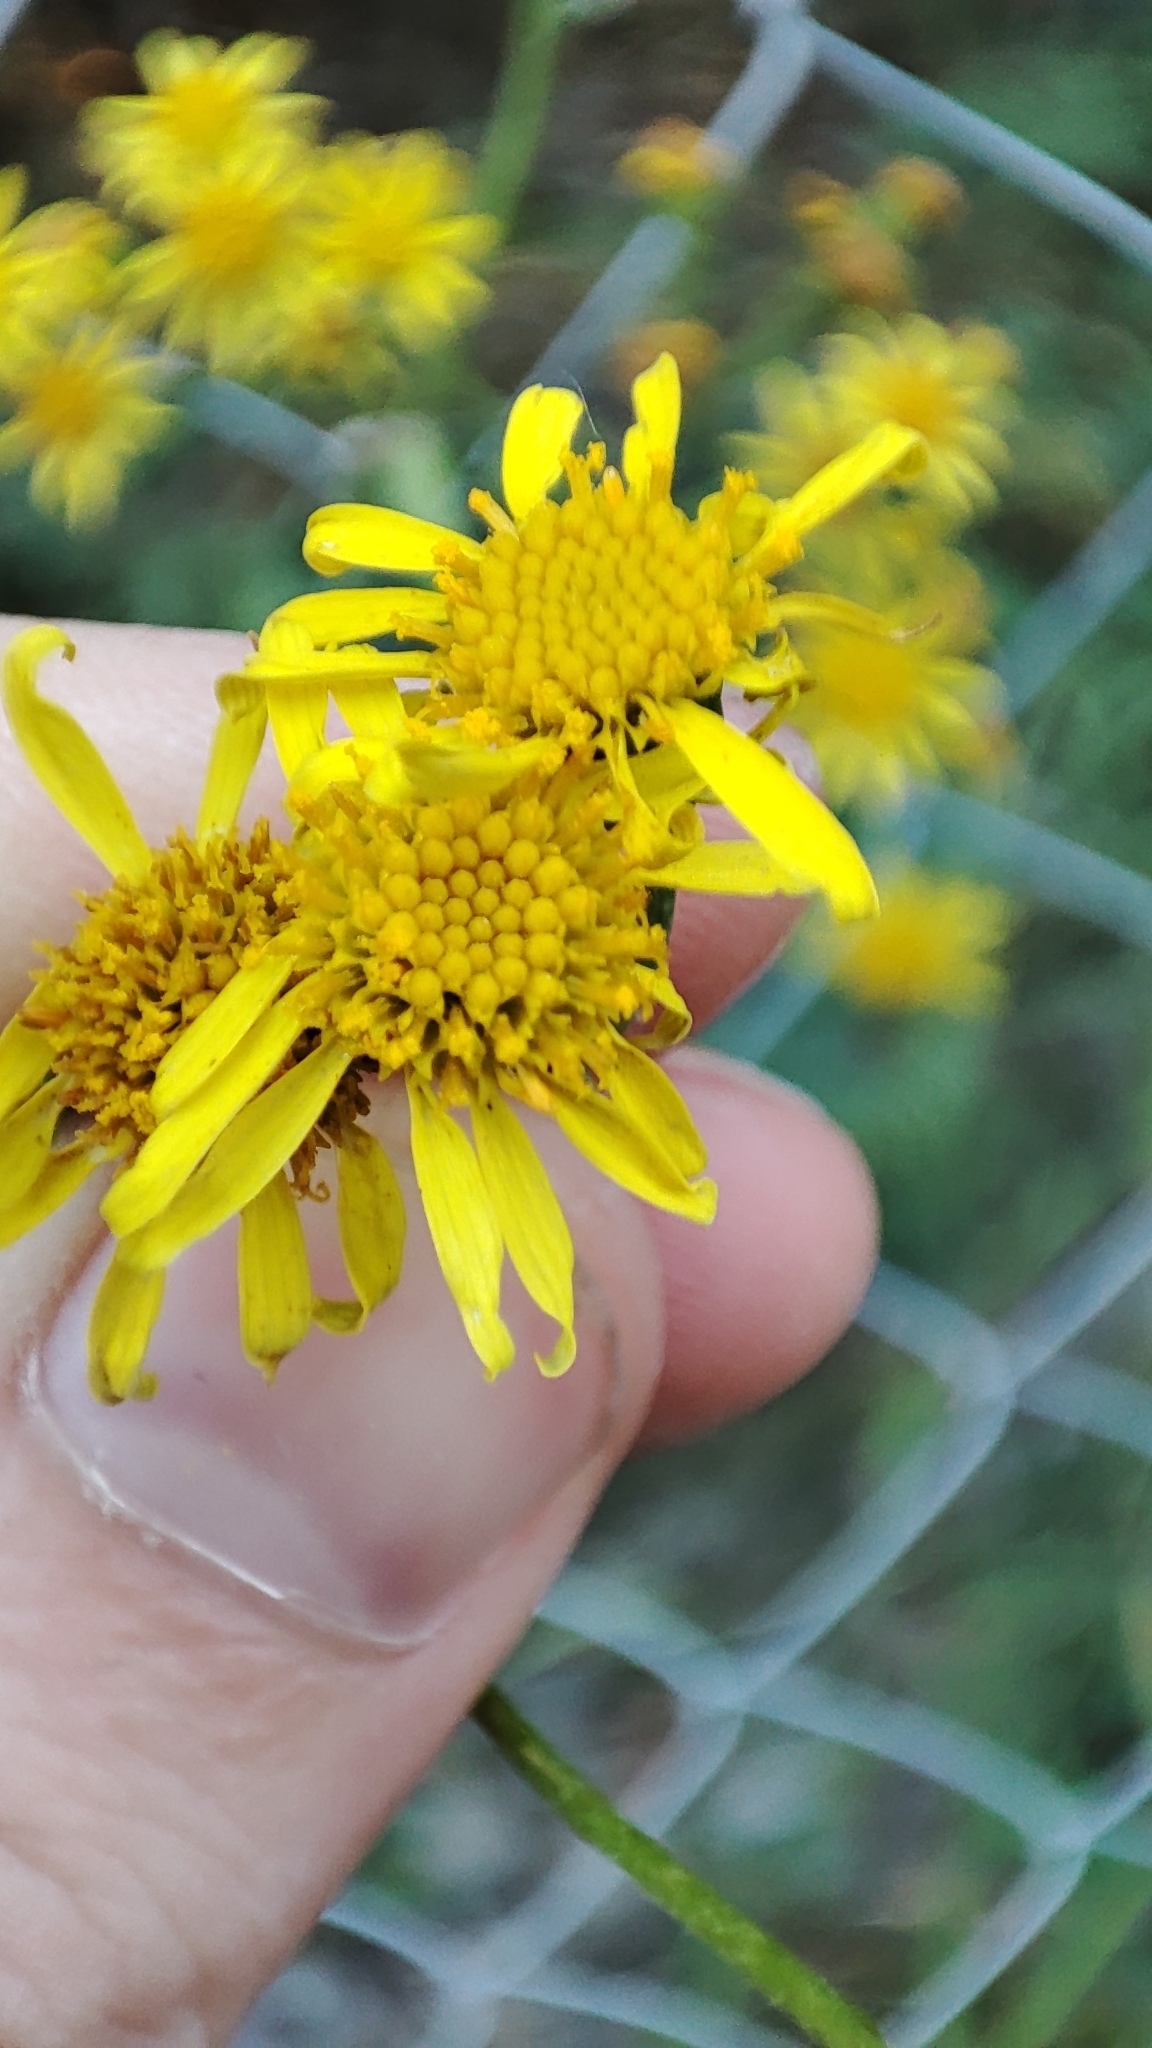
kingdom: Plantae
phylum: Tracheophyta
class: Magnoliopsida
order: Asterales
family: Asteraceae
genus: Jacobaea
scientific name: Jacobaea vulgaris
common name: Stinking willie
